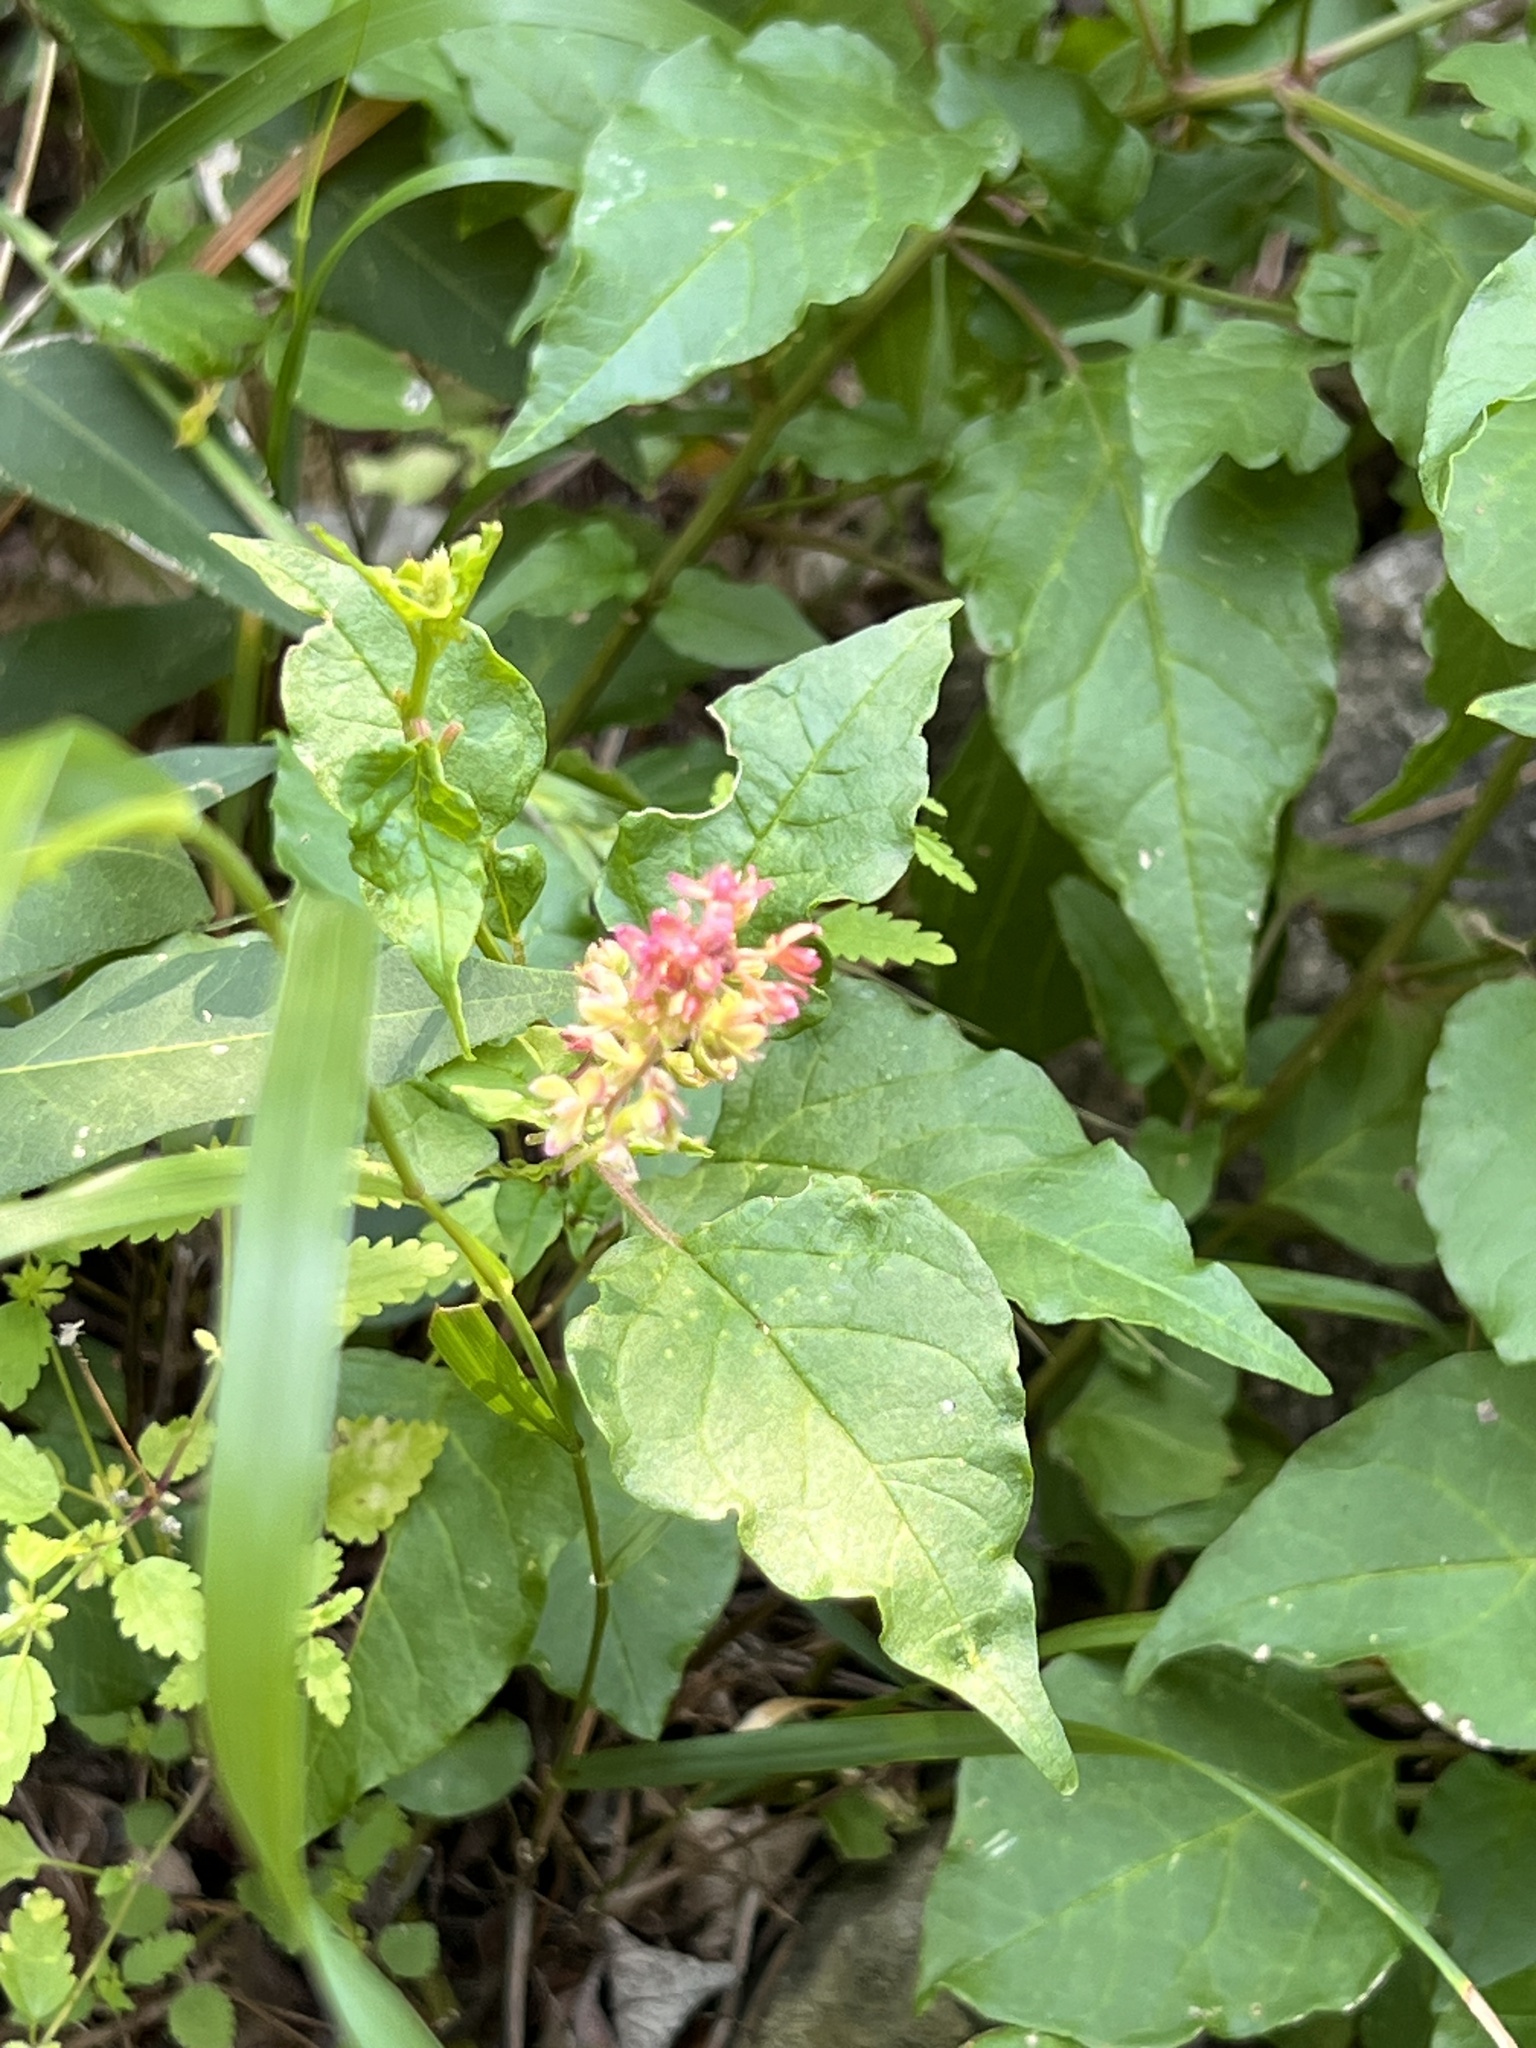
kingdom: Plantae
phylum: Tracheophyta
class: Magnoliopsida
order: Caryophyllales
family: Phytolaccaceae
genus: Rivina
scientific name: Rivina humilis
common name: Rougeplant
